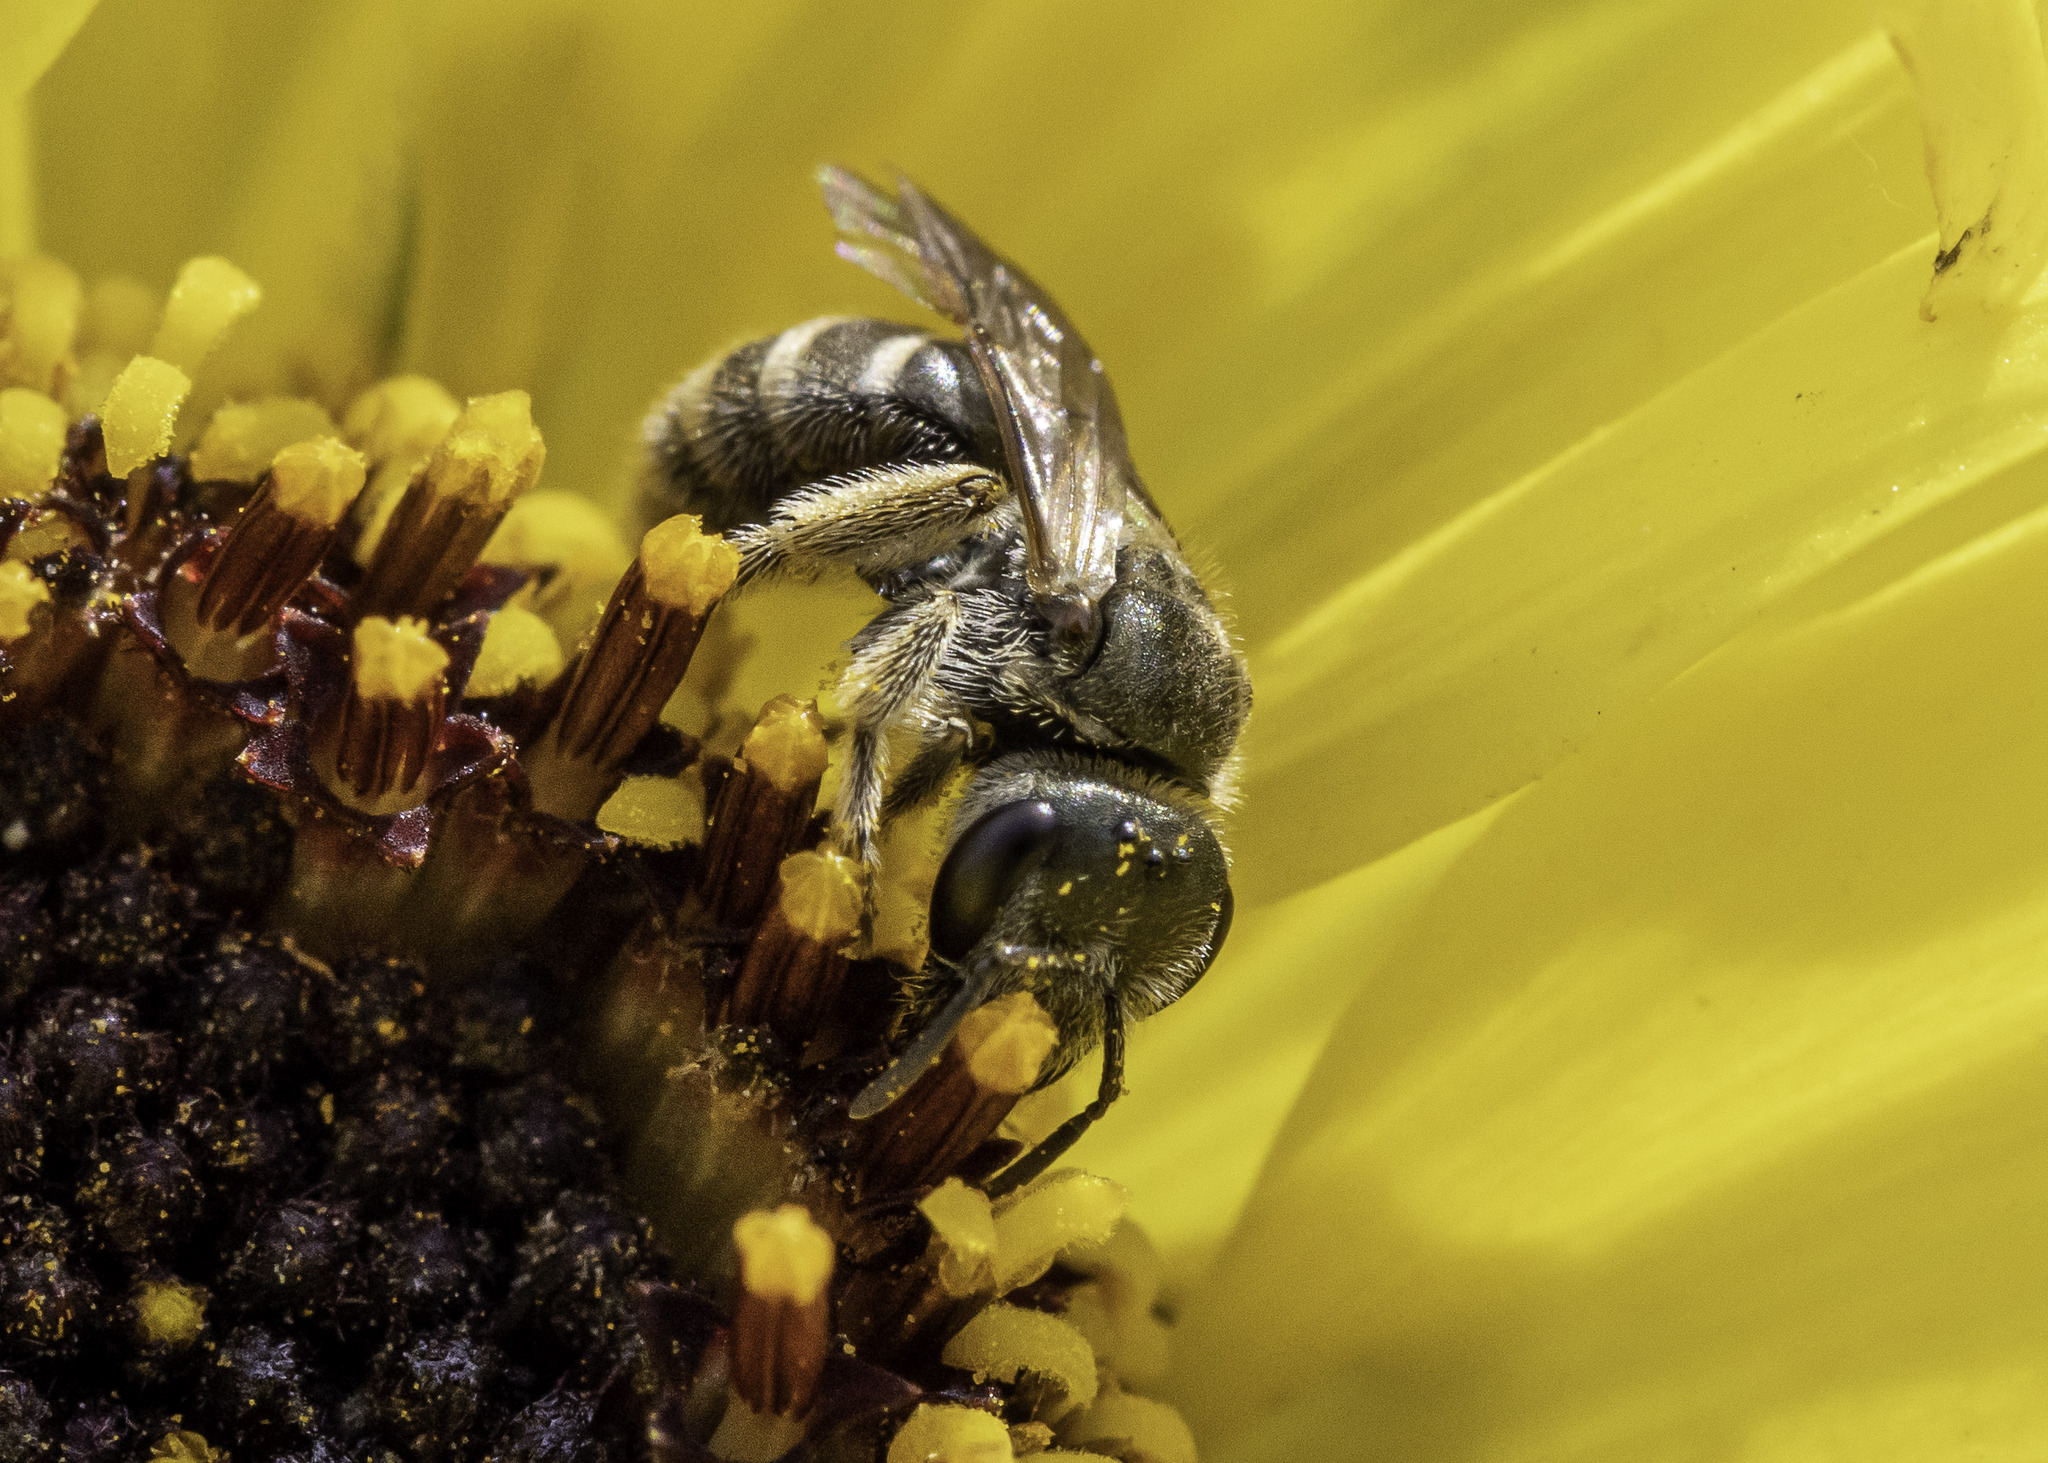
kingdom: Animalia
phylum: Arthropoda
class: Insecta
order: Hymenoptera
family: Halictidae
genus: Halictus
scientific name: Halictus tripartitus
